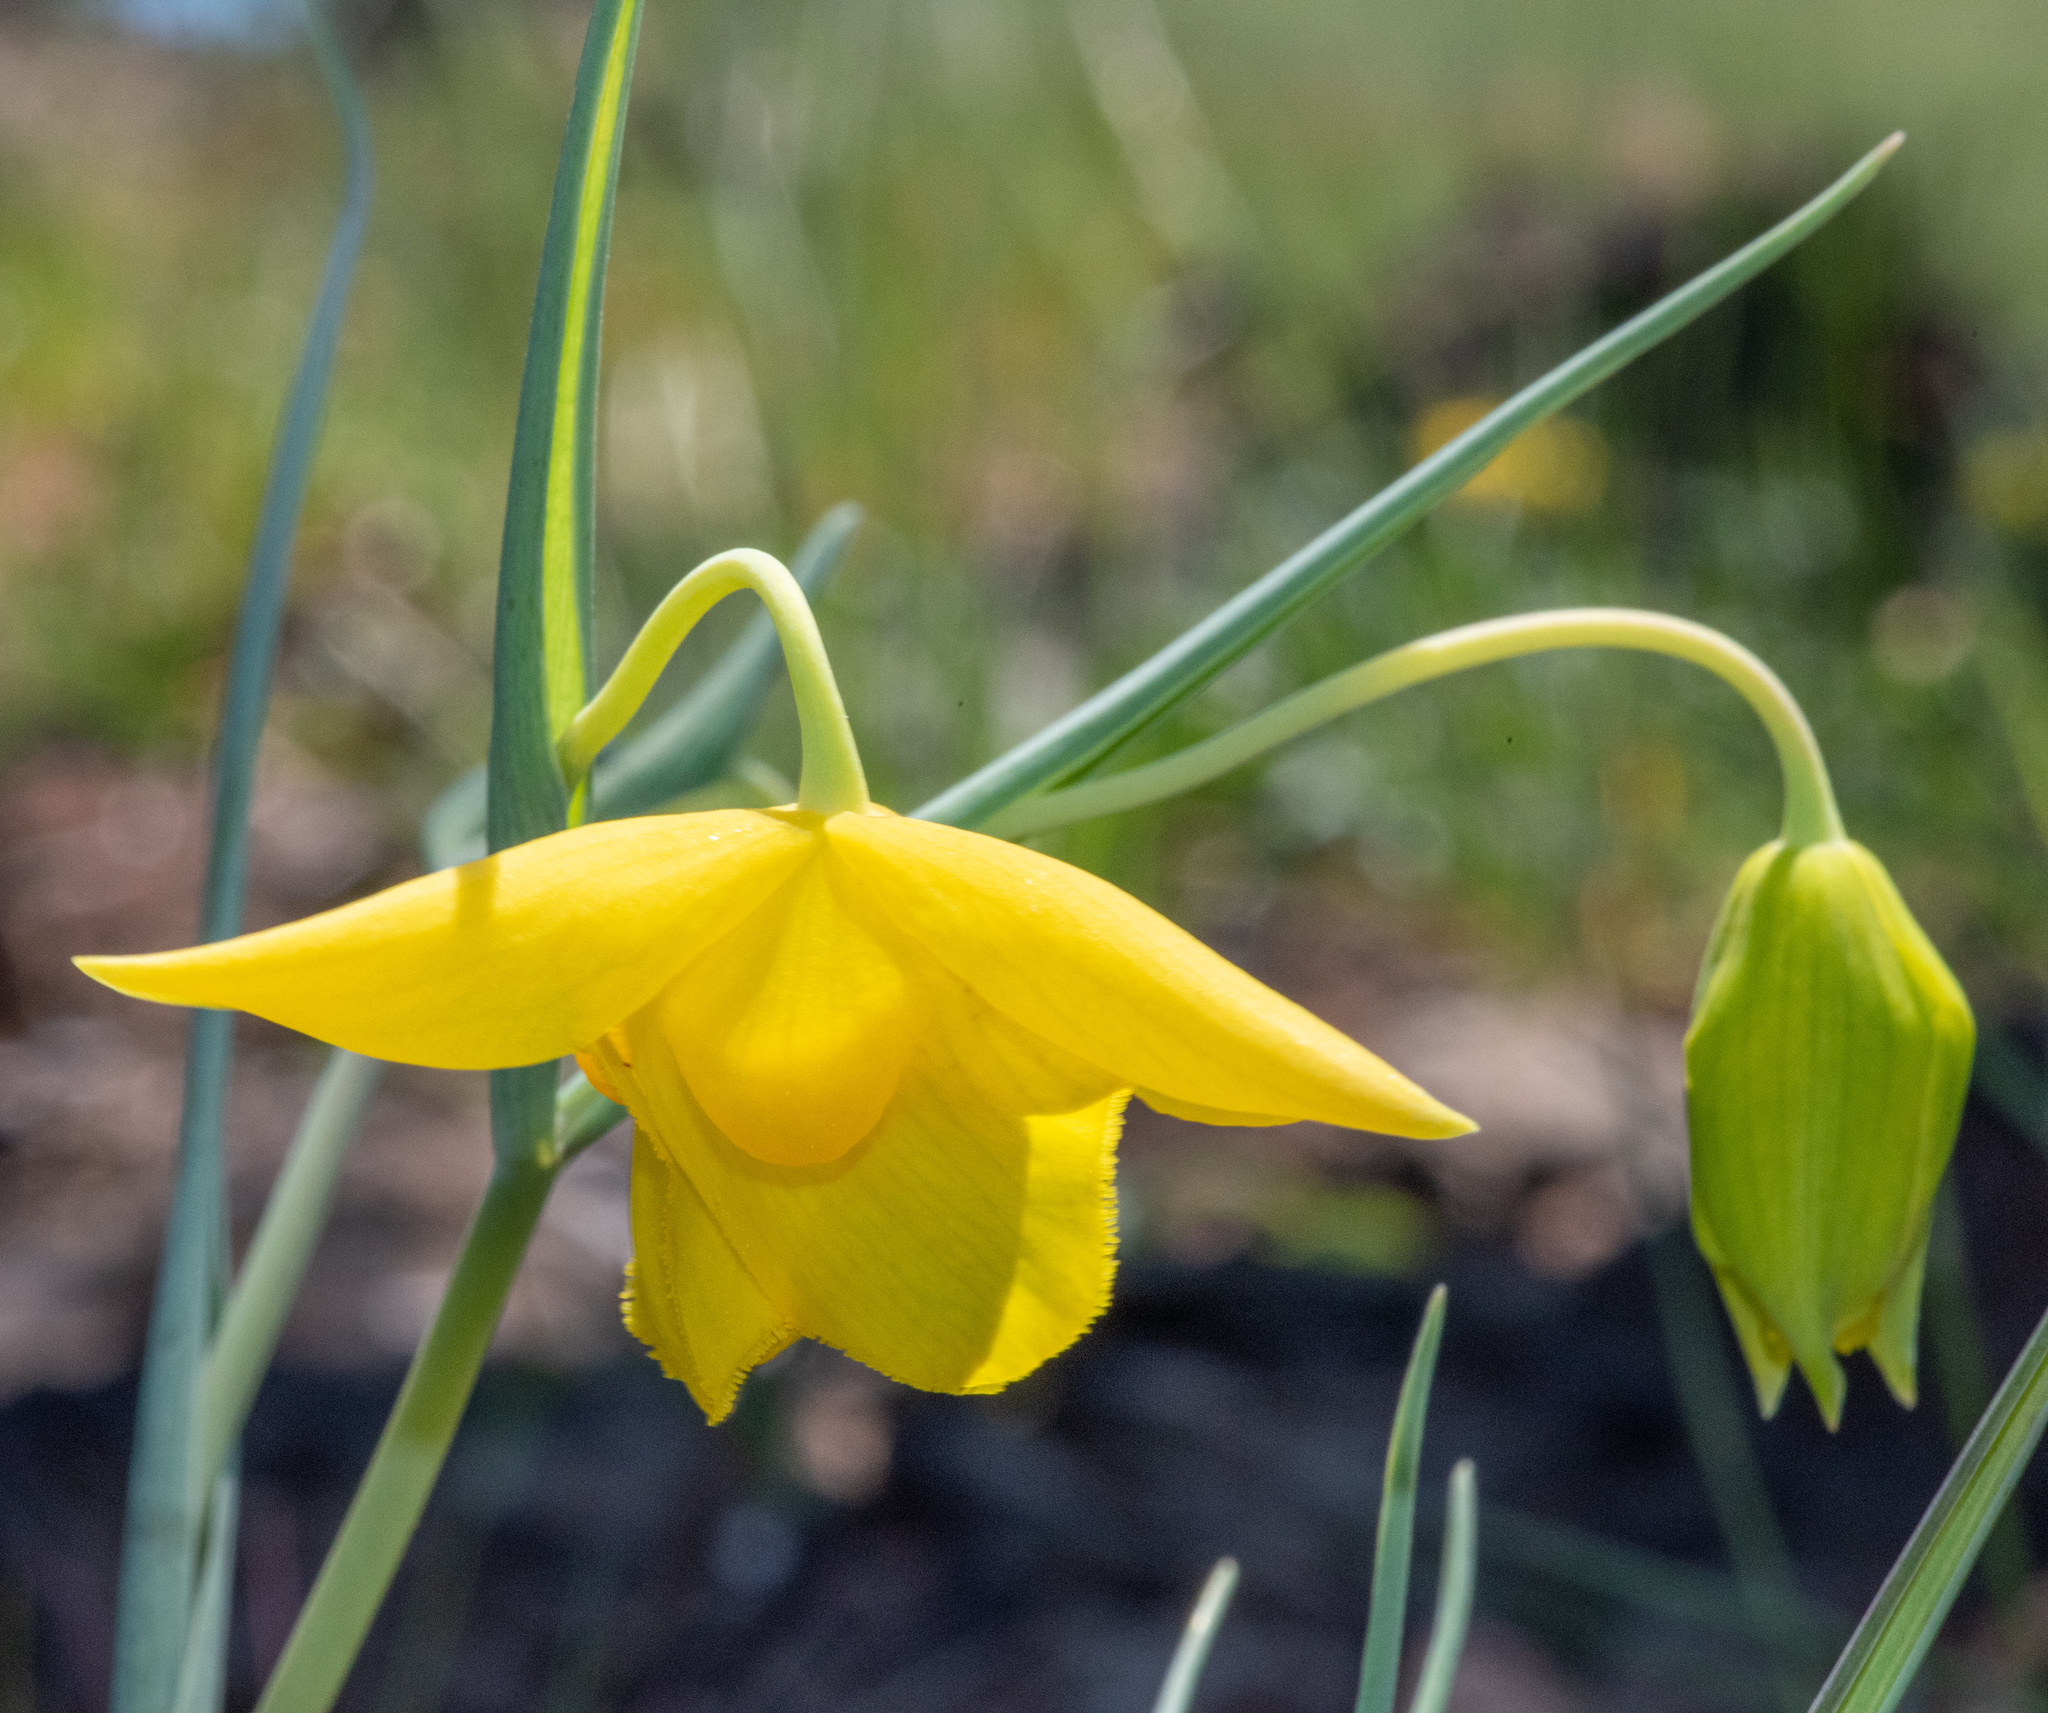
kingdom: Plantae
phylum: Tracheophyta
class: Liliopsida
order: Liliales
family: Liliaceae
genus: Calochortus
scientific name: Calochortus amabilis
